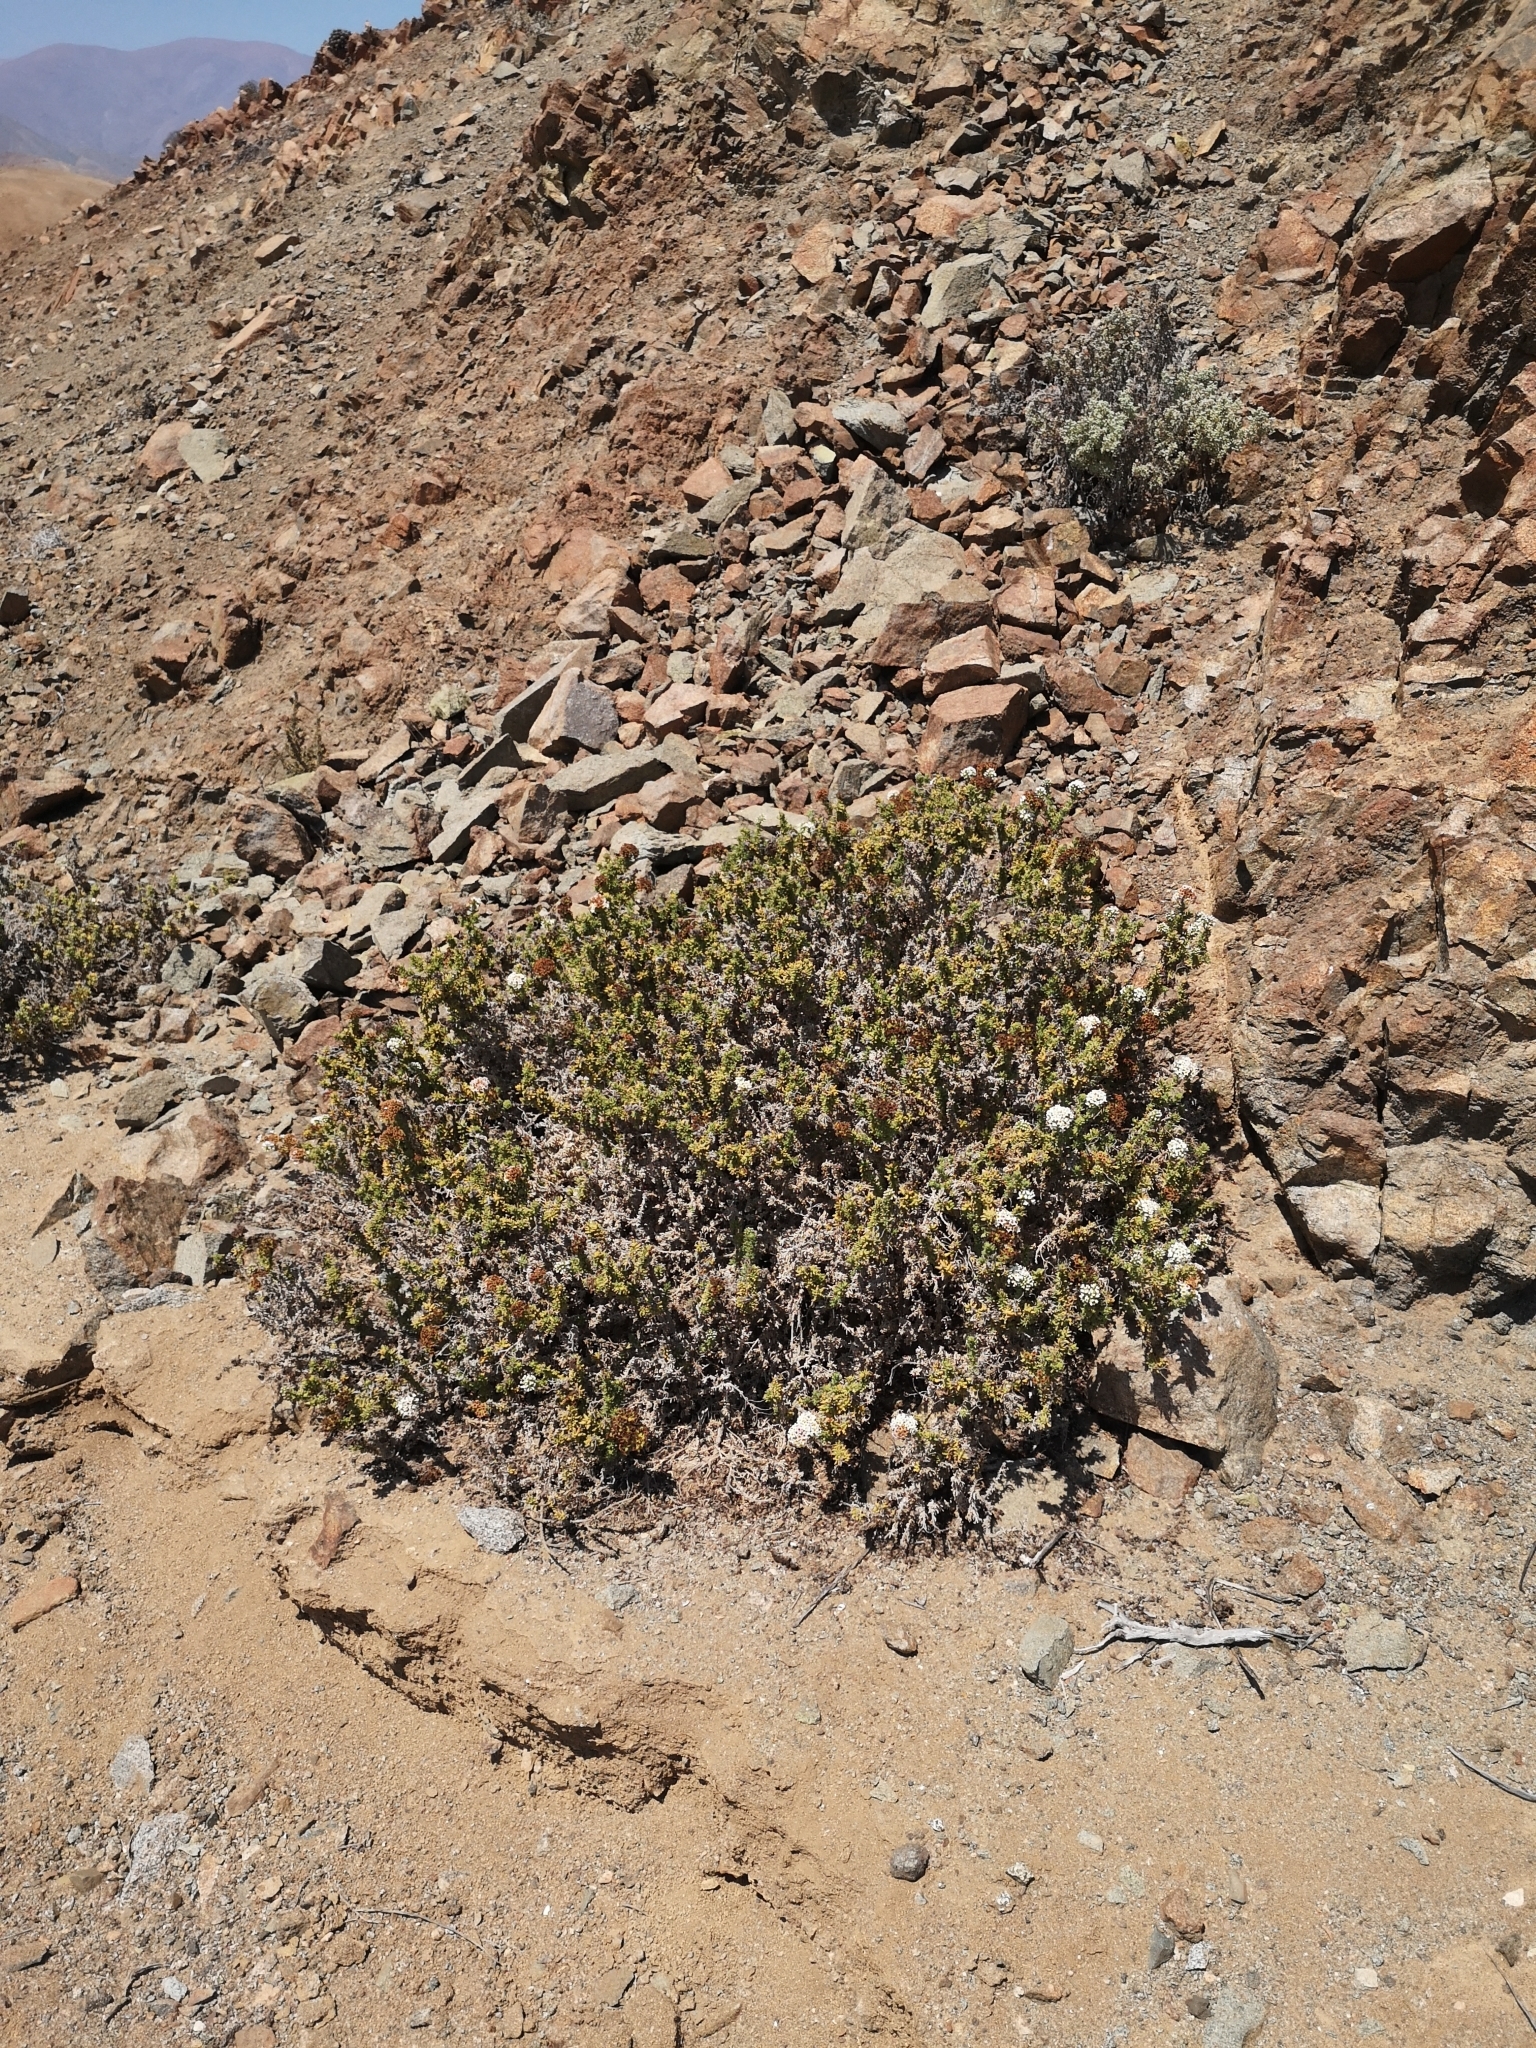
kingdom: Plantae
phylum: Tracheophyta
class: Magnoliopsida
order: Boraginales
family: Heliotropiaceae
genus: Heliotropium
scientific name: Heliotropium pycnophyllum
